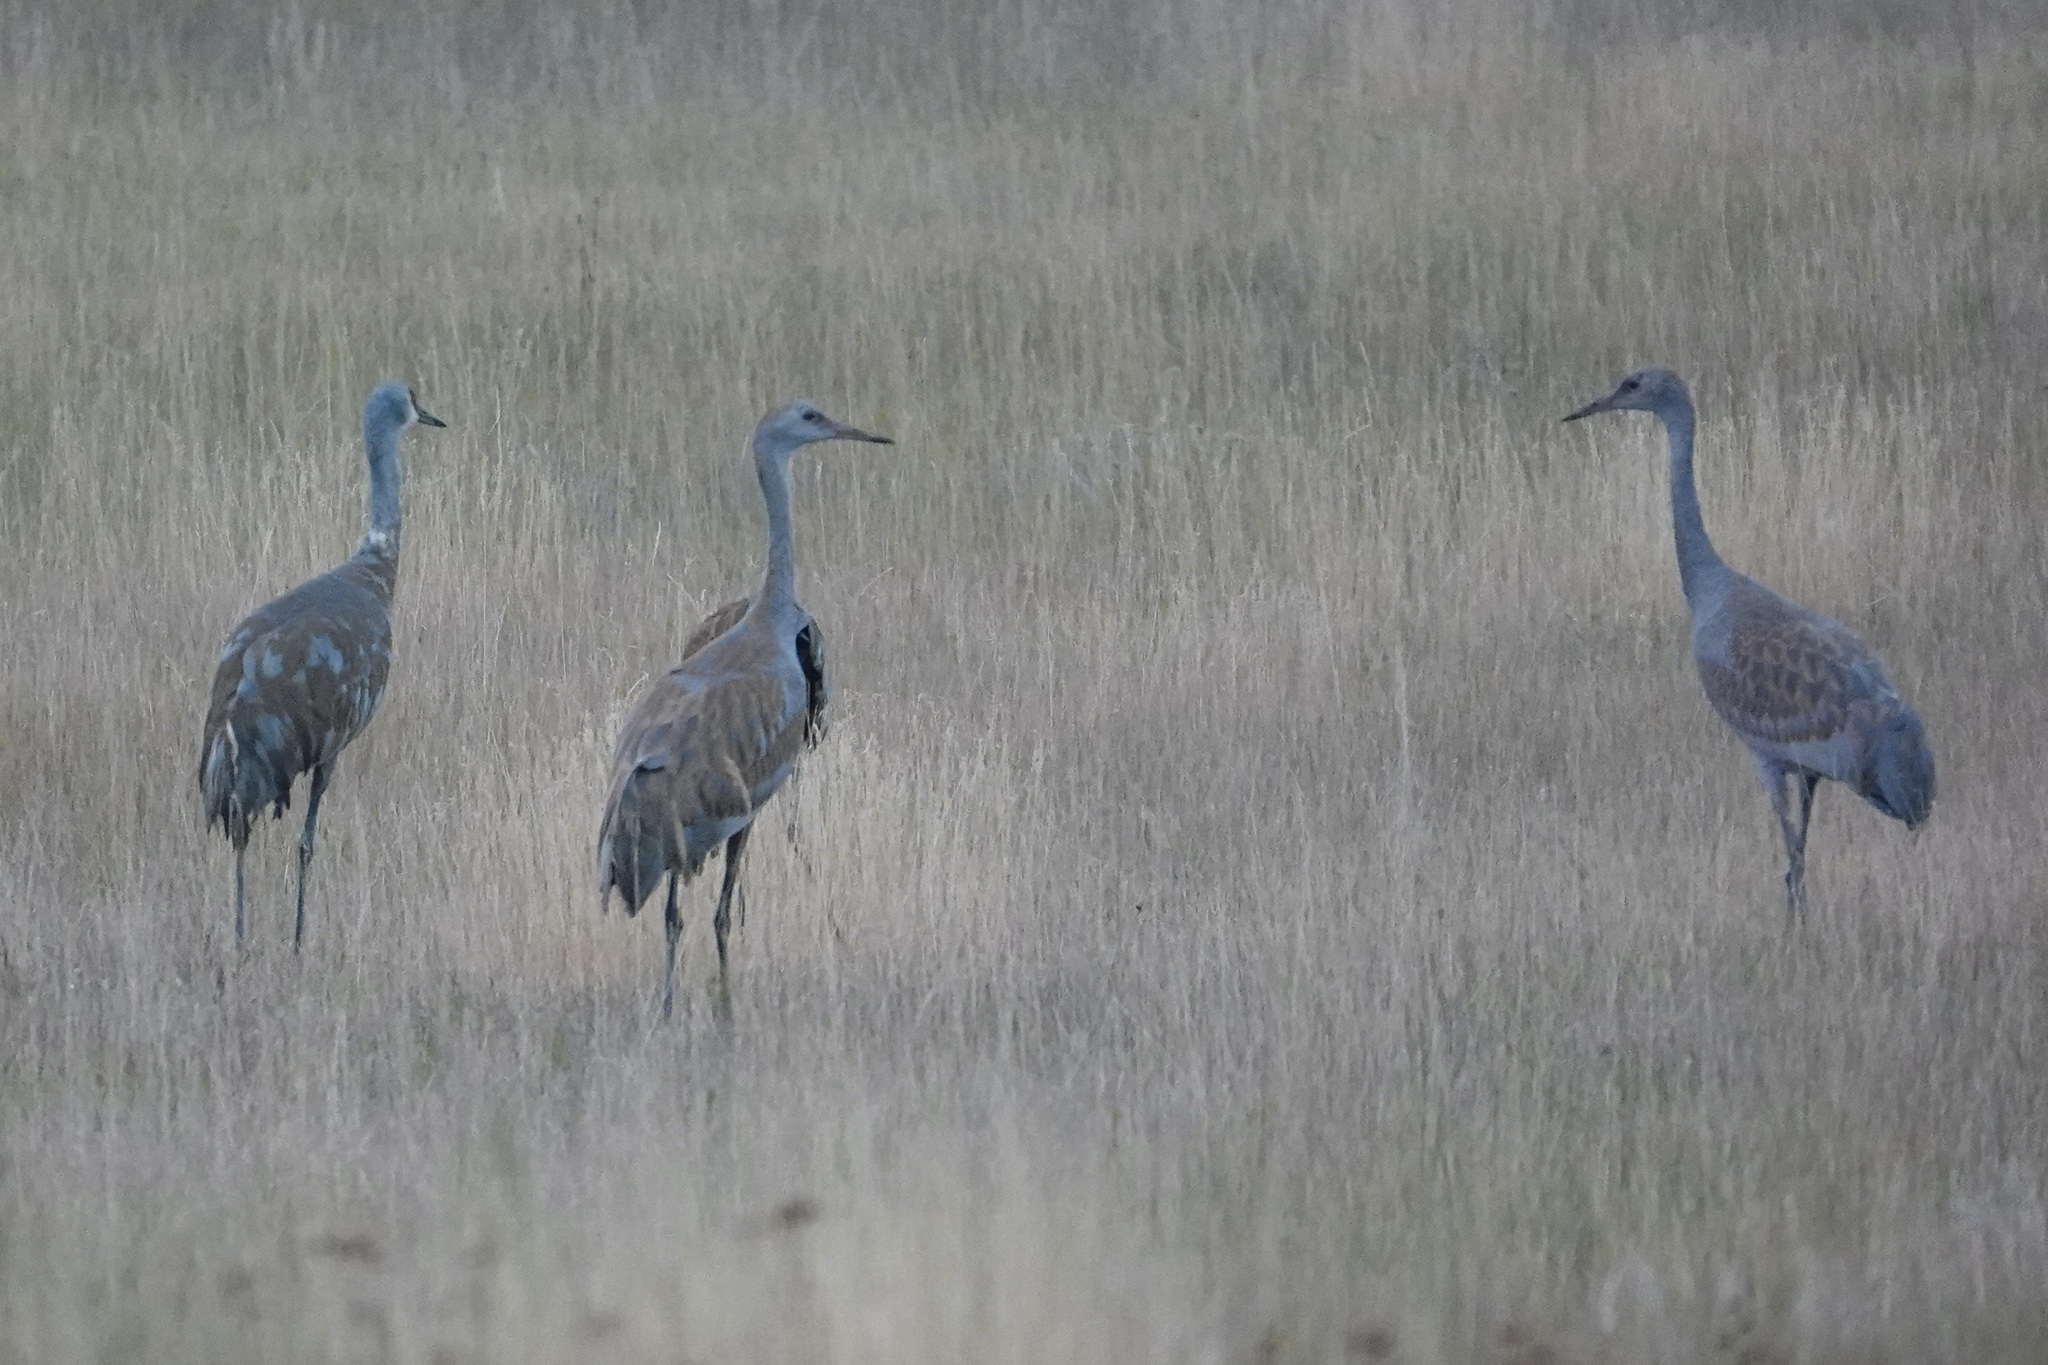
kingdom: Animalia
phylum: Chordata
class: Aves
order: Gruiformes
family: Gruidae
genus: Grus
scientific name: Grus canadensis
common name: Sandhill crane
